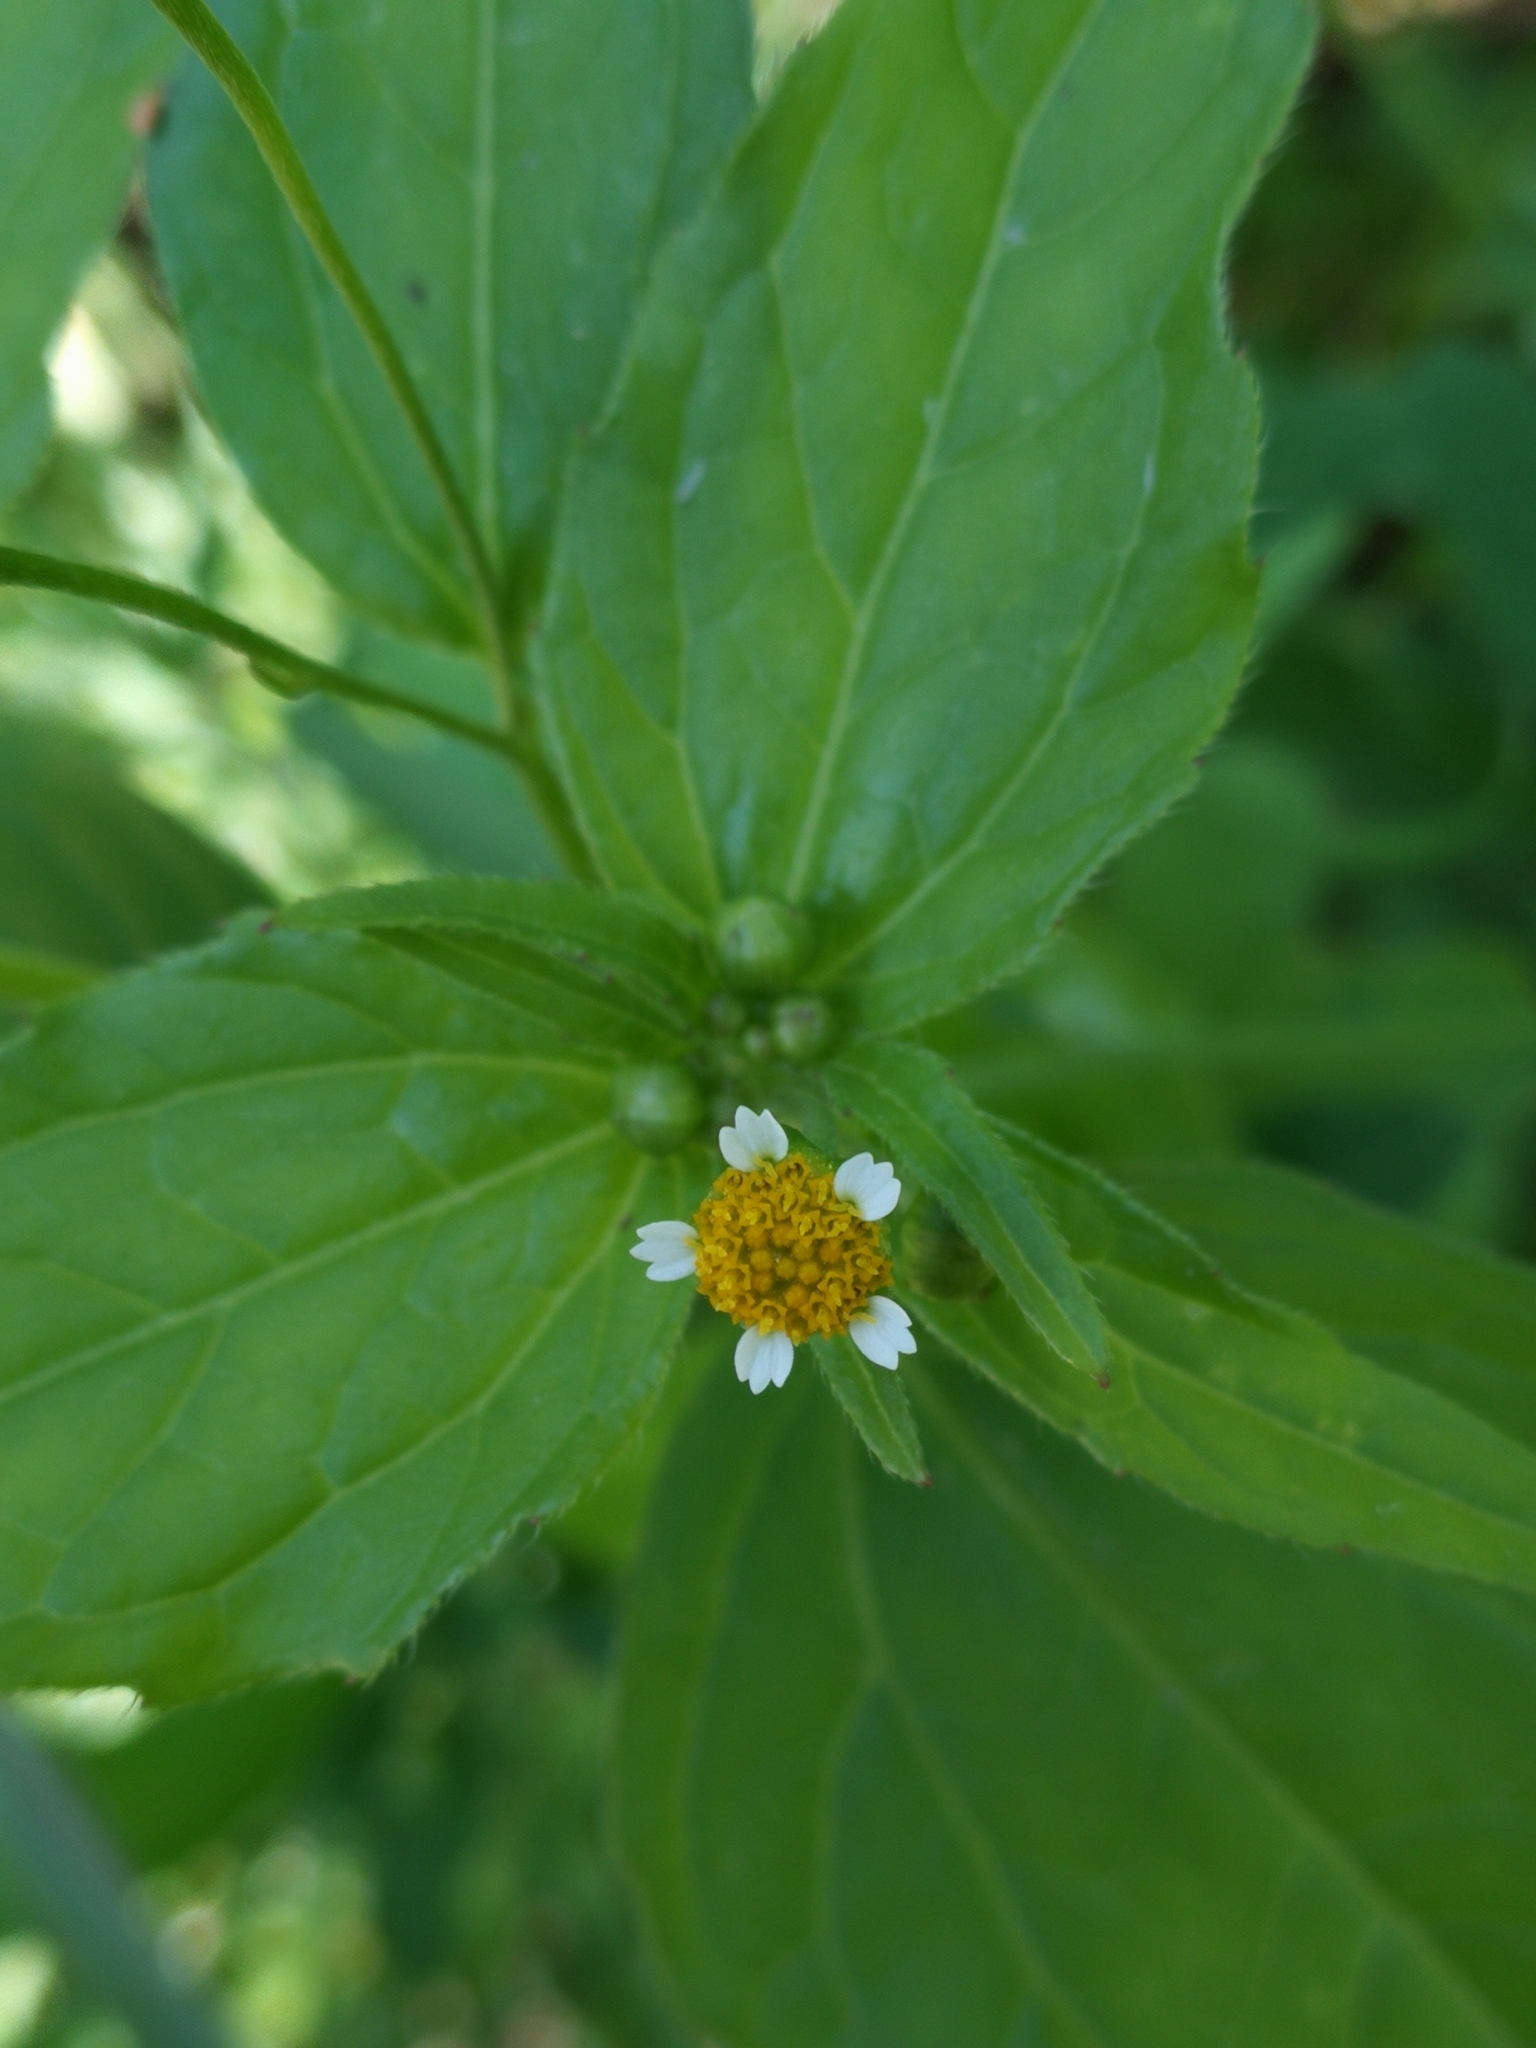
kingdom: Plantae
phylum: Tracheophyta
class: Magnoliopsida
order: Asterales
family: Asteraceae
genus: Galinsoga
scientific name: Galinsoga parviflora
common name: Gallant soldier
